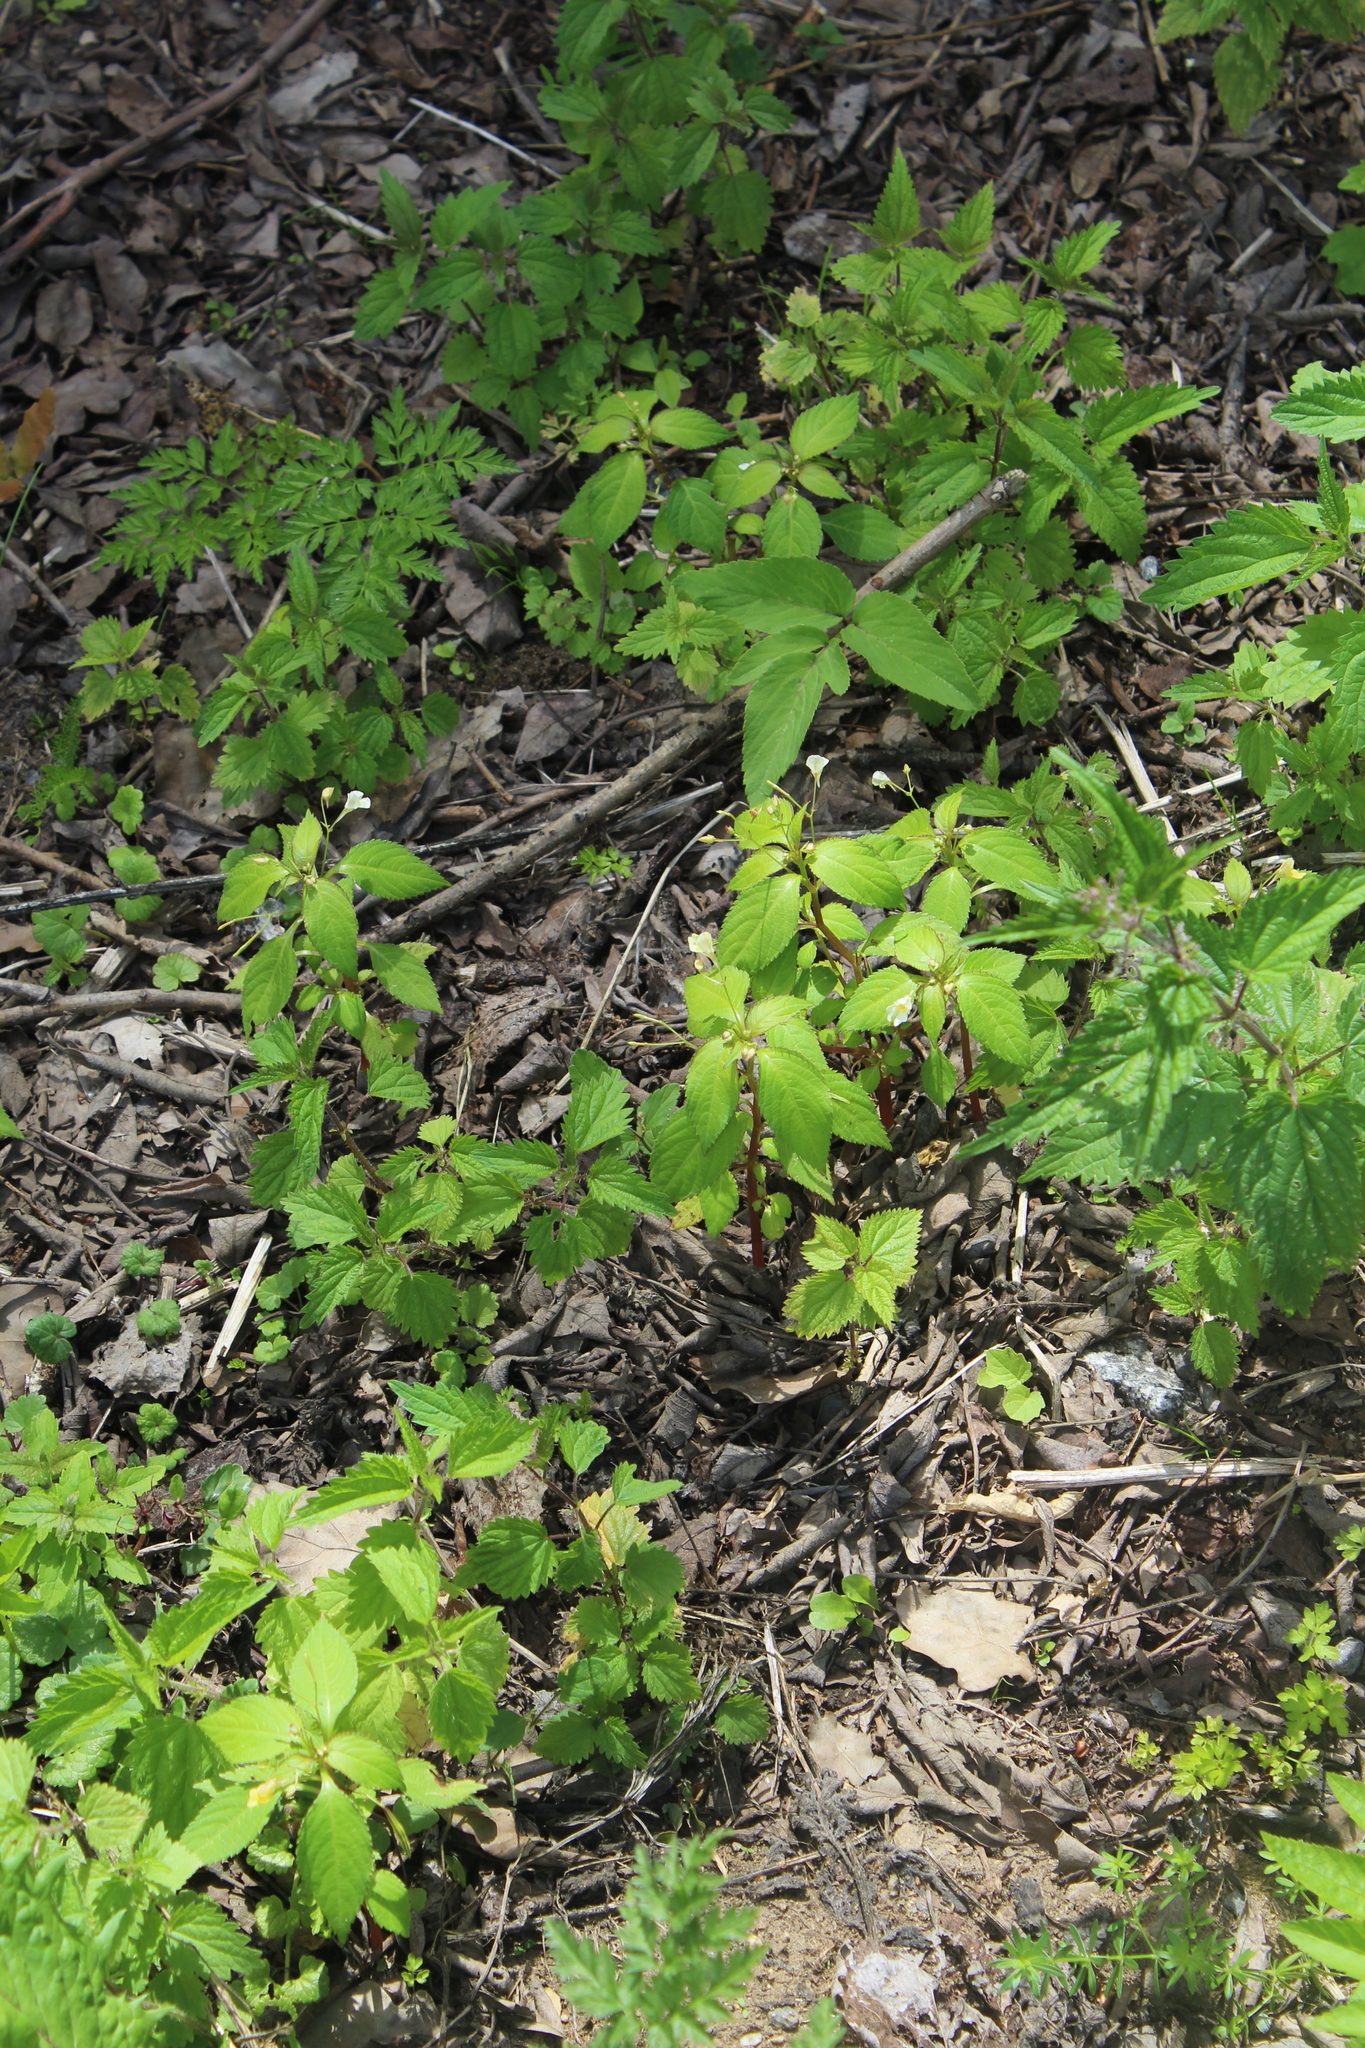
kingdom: Plantae
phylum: Tracheophyta
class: Magnoliopsida
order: Ericales
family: Balsaminaceae
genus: Impatiens
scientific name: Impatiens parviflora
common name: Small balsam
